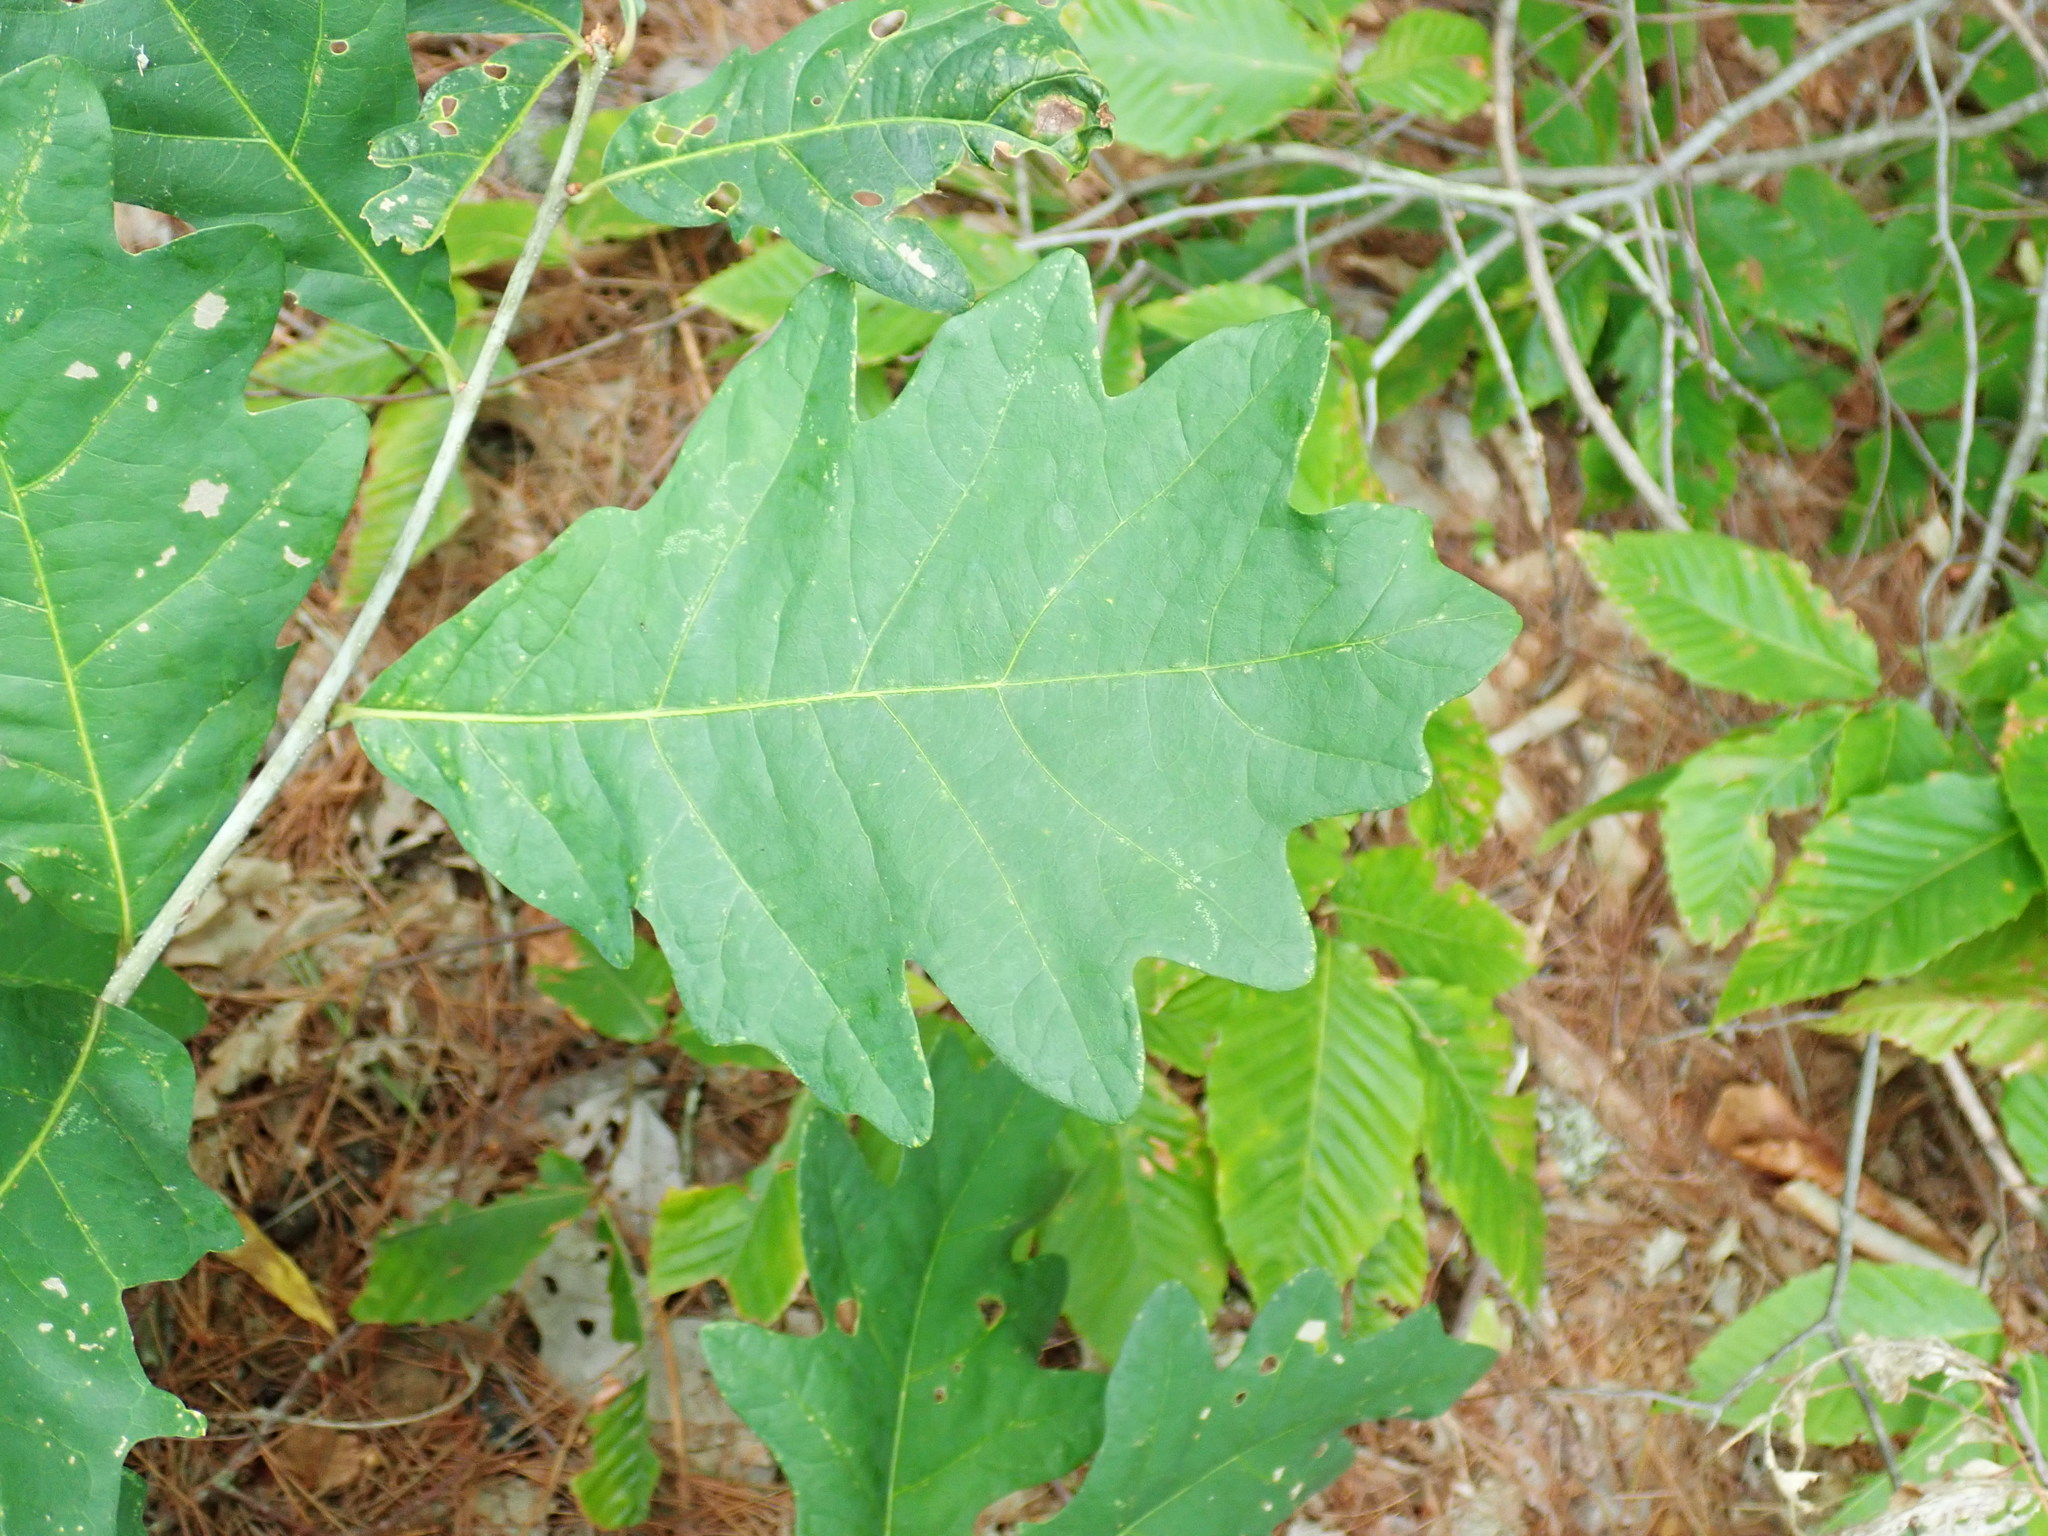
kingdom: Plantae
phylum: Tracheophyta
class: Magnoliopsida
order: Fagales
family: Fagaceae
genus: Quercus
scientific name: Quercus alba
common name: White oak
